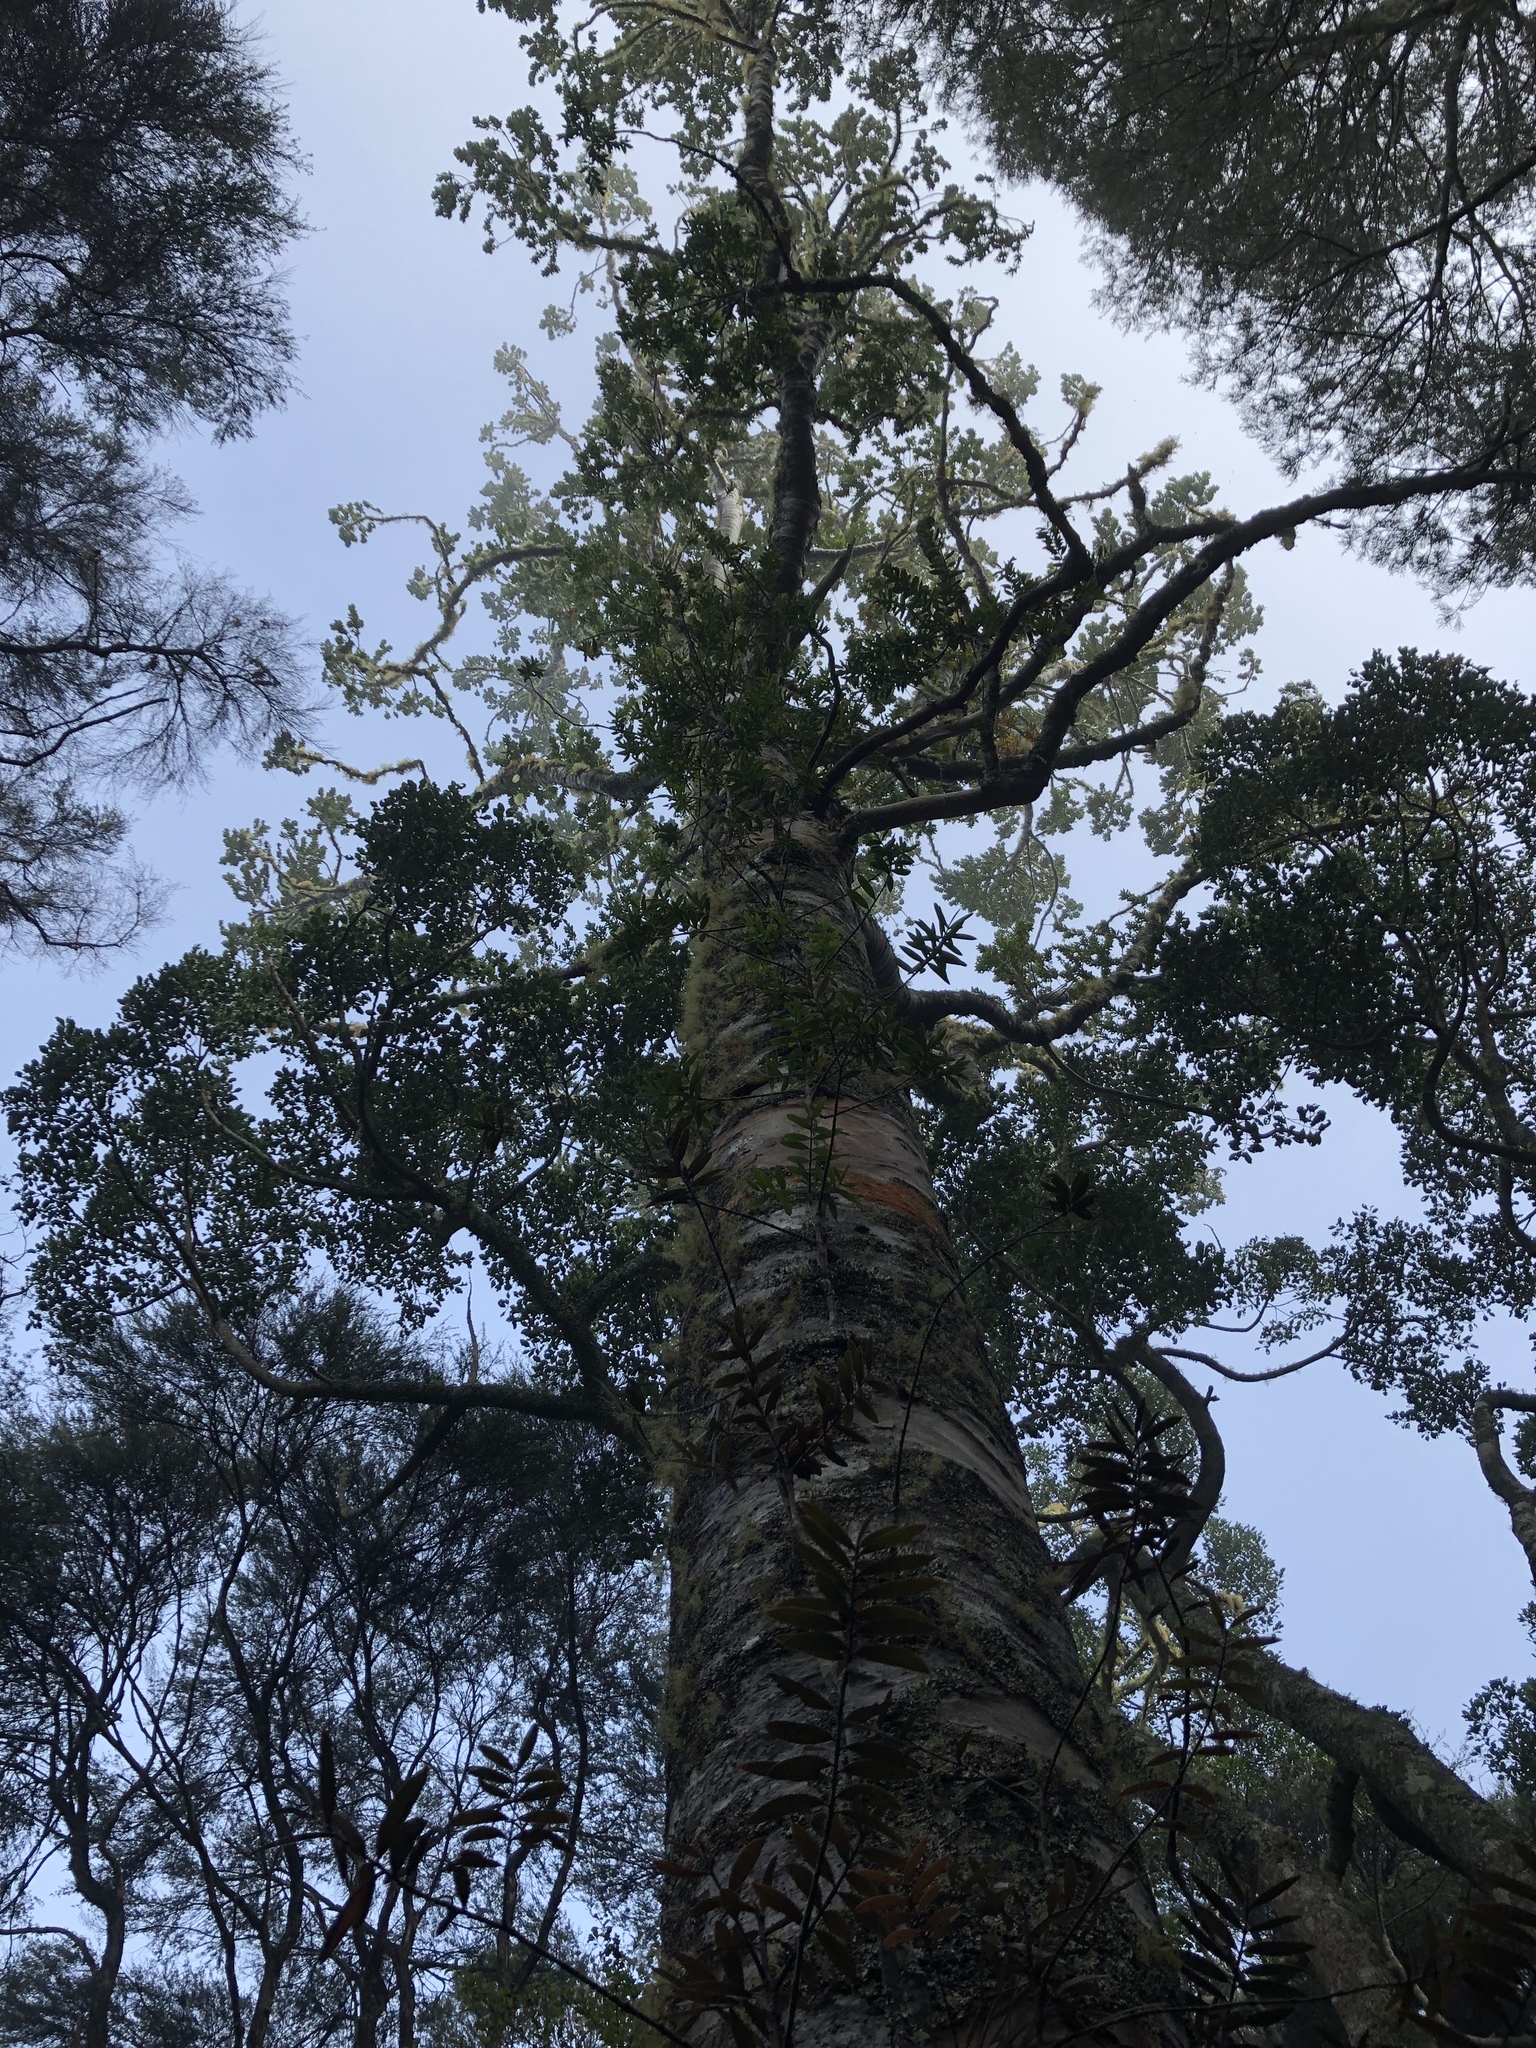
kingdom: Plantae
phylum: Tracheophyta
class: Pinopsida
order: Pinales
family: Araucariaceae
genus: Agathis
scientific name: Agathis australis
